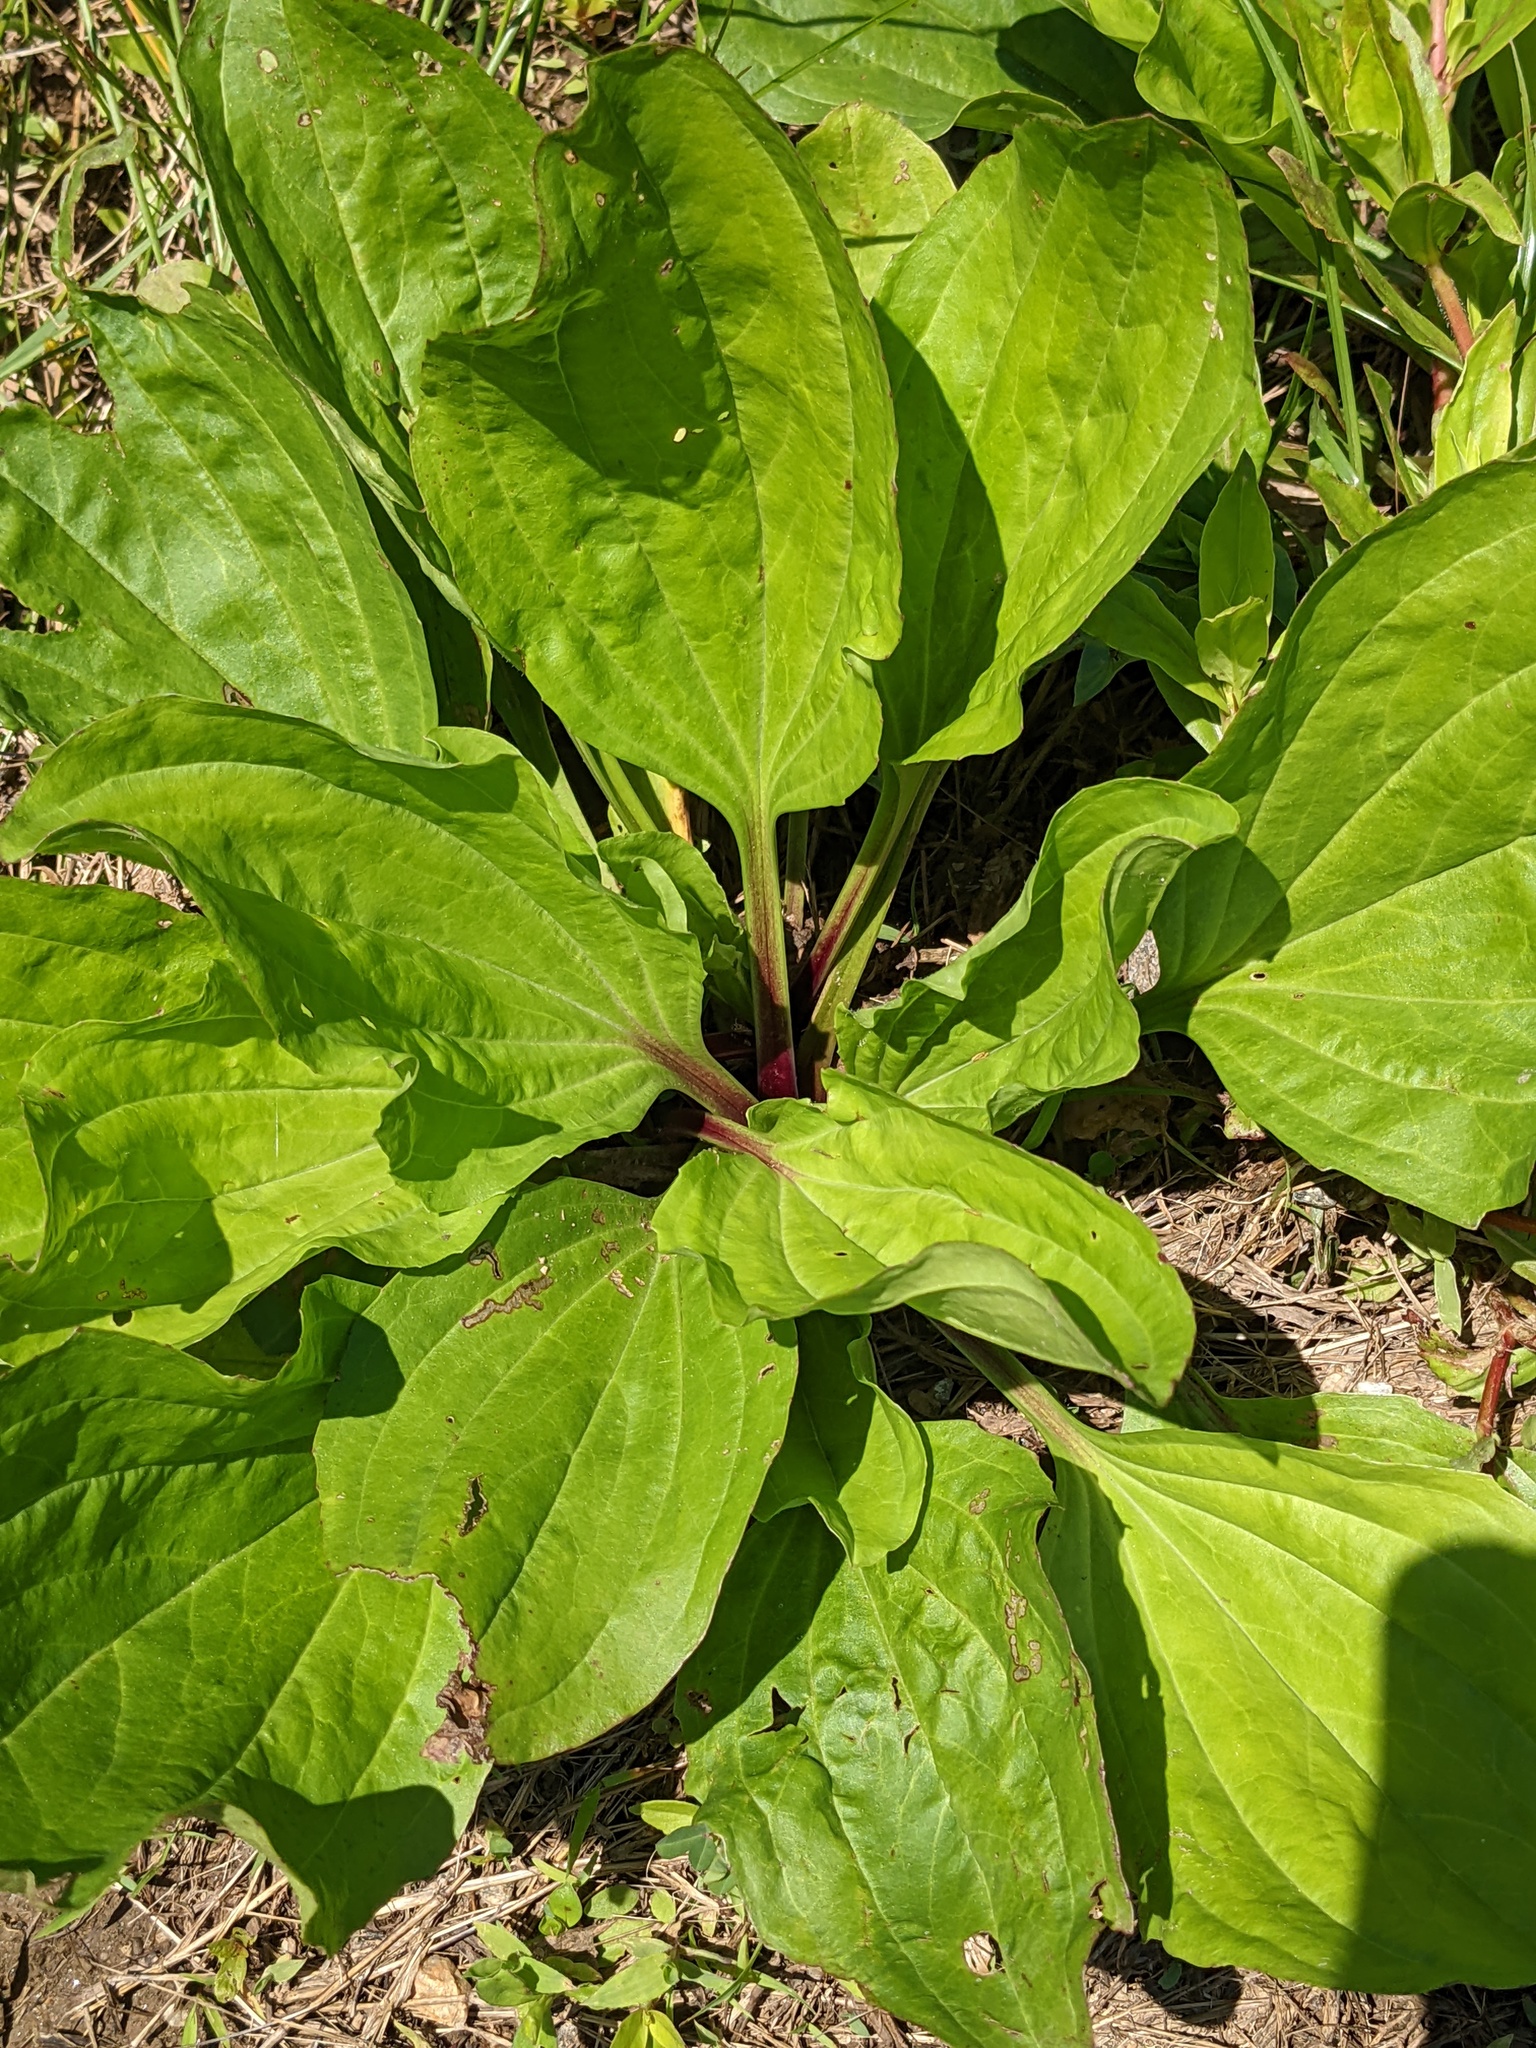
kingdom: Plantae
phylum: Tracheophyta
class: Magnoliopsida
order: Lamiales
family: Plantaginaceae
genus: Plantago
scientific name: Plantago rugelii
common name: American plantain
